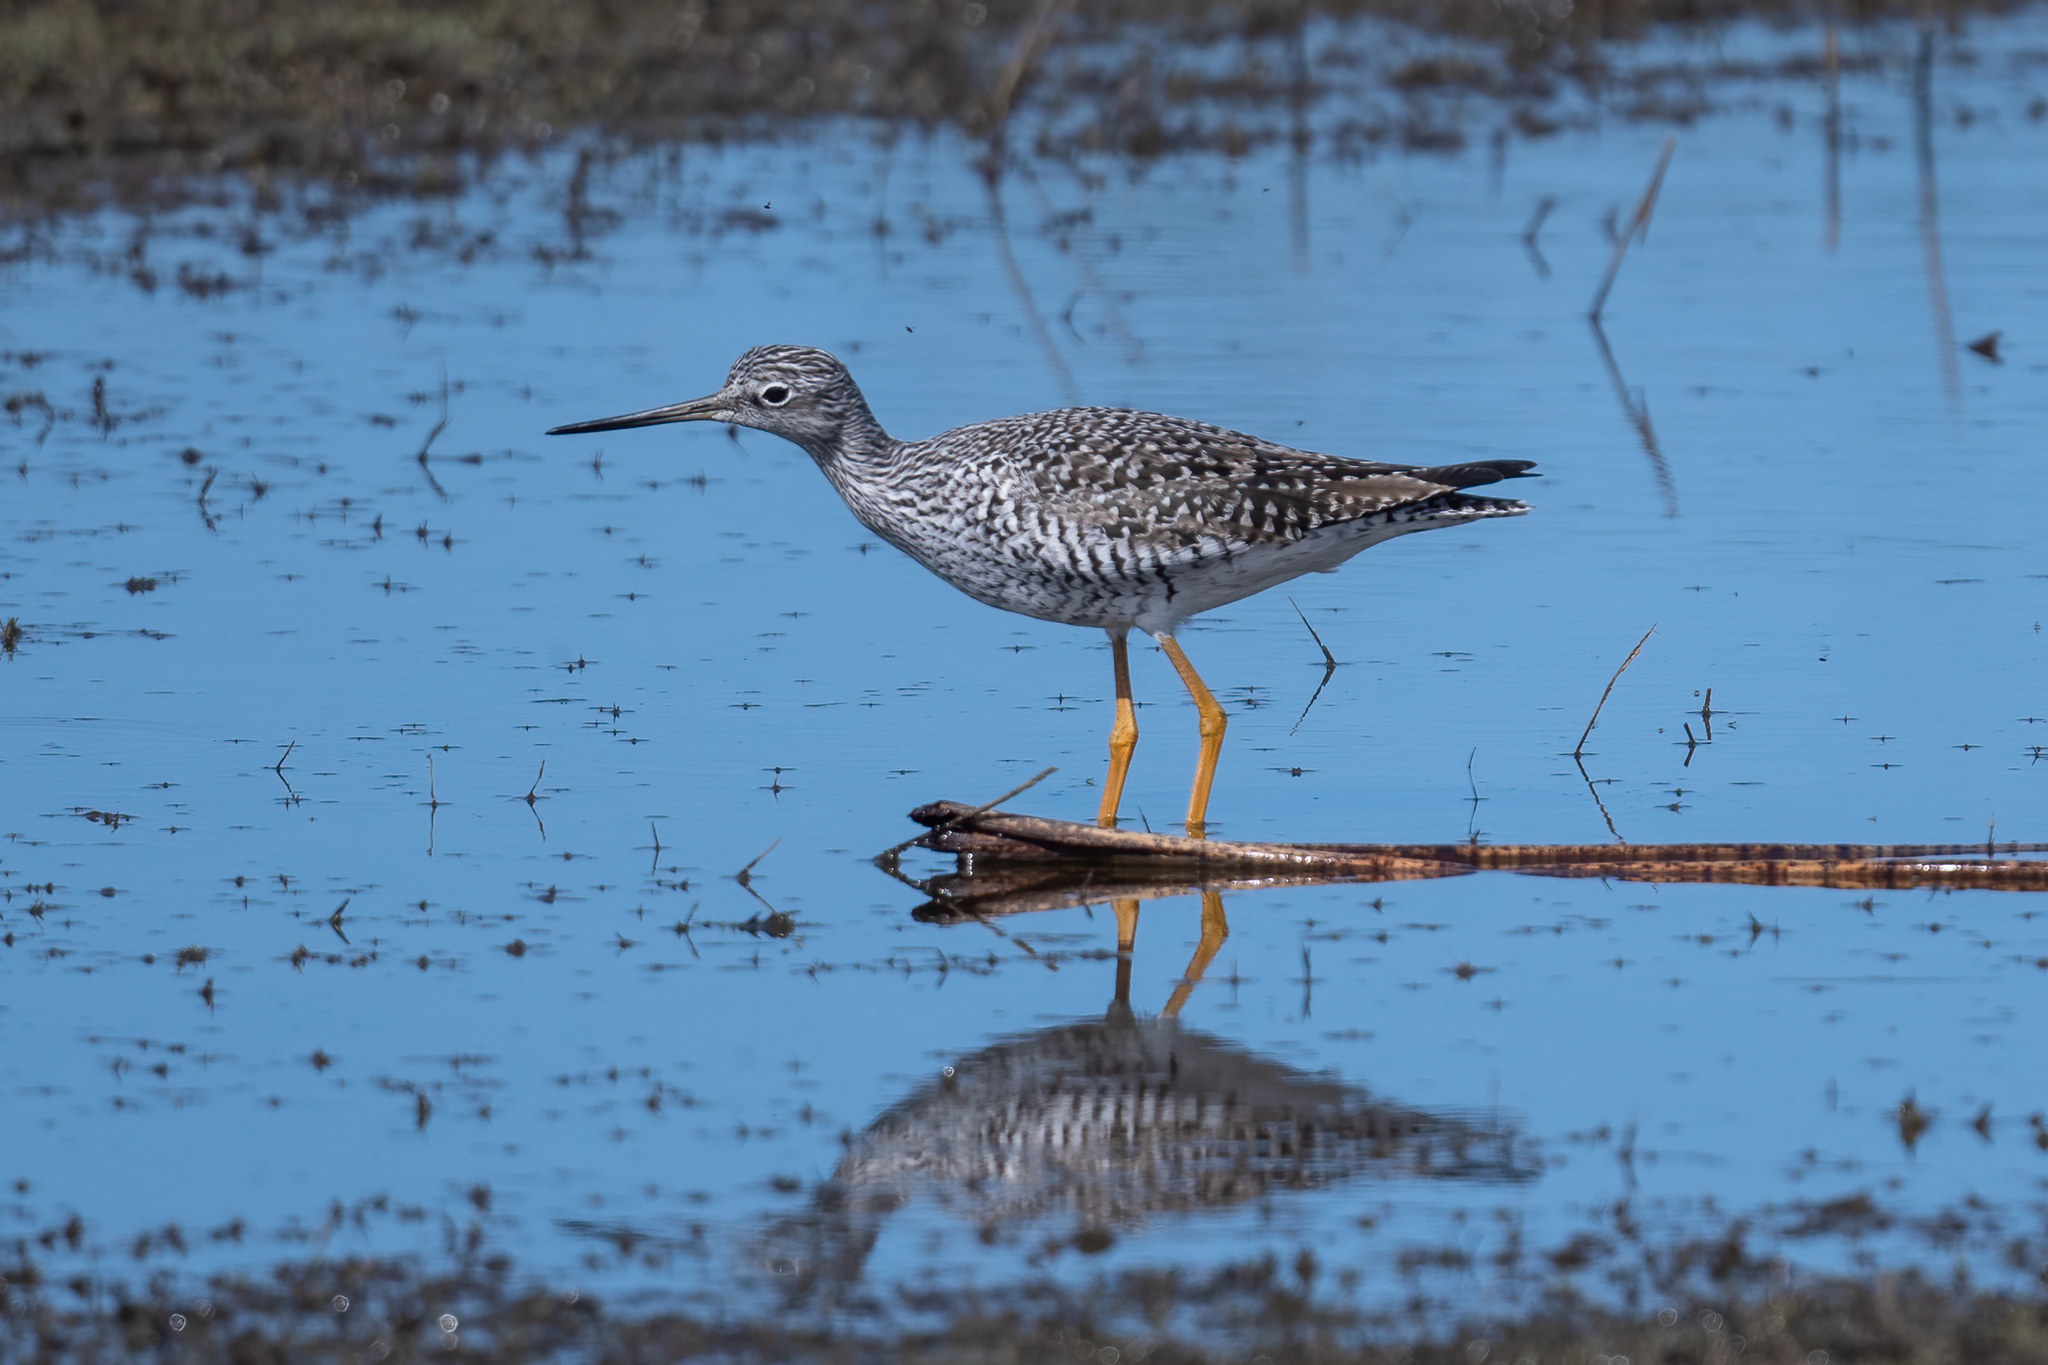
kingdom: Animalia
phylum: Chordata
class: Aves
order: Charadriiformes
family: Scolopacidae
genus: Tringa
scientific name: Tringa melanoleuca
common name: Greater yellowlegs
